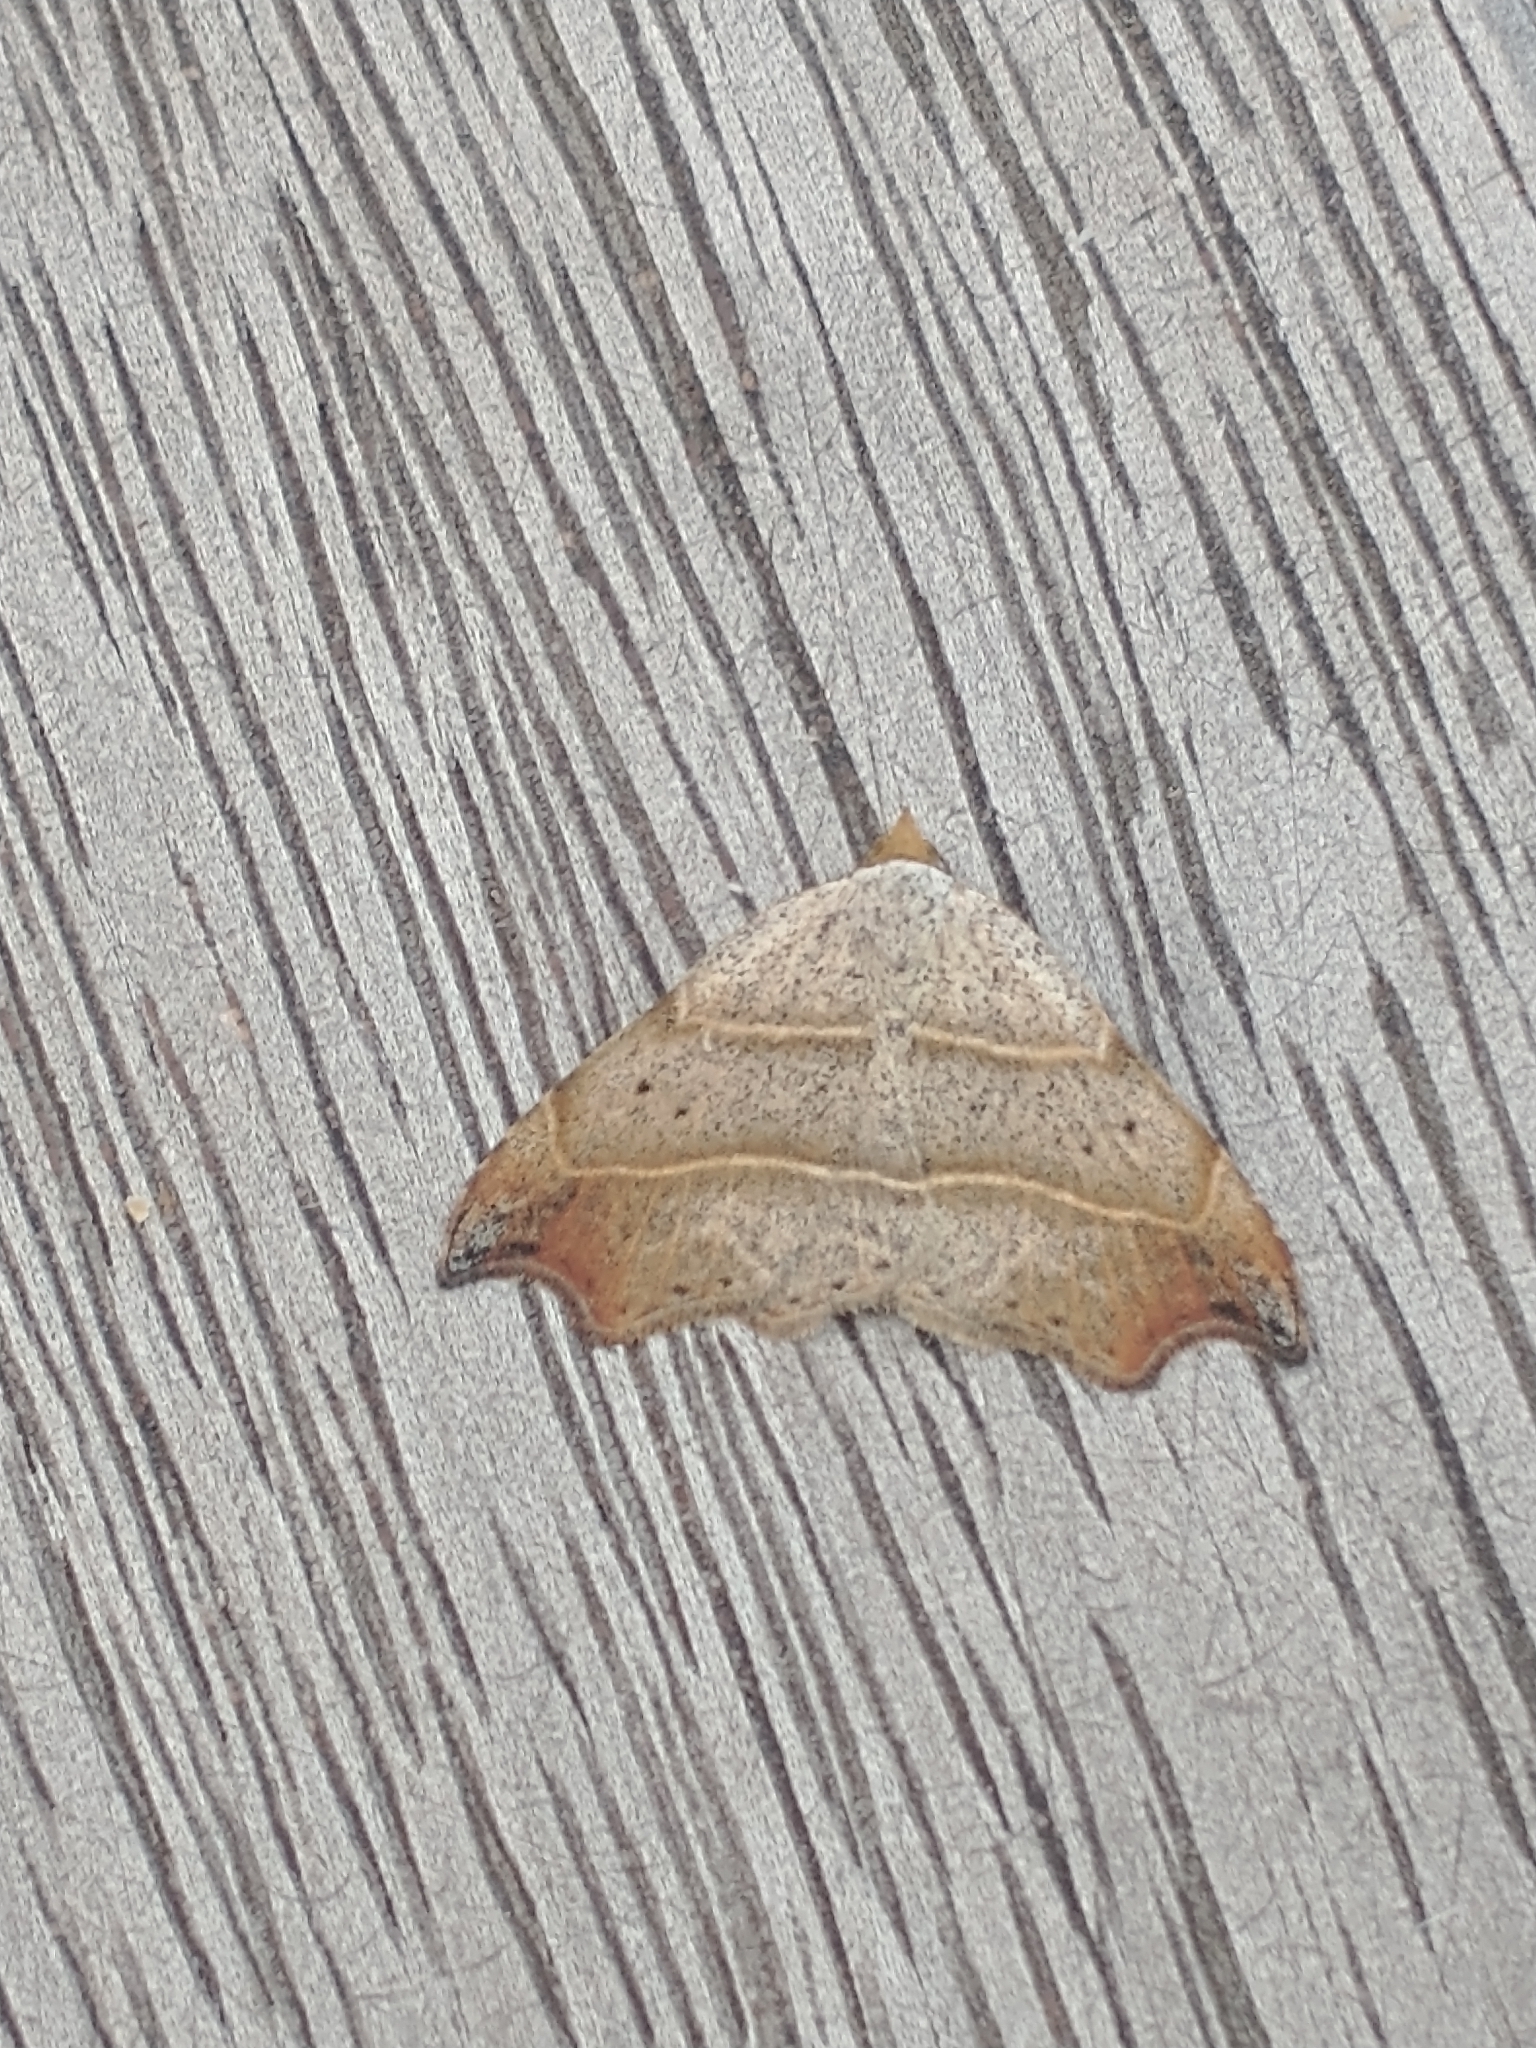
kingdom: Animalia
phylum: Arthropoda
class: Insecta
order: Lepidoptera
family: Erebidae
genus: Laspeyria
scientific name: Laspeyria flexula
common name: Beautiful hook-tip
